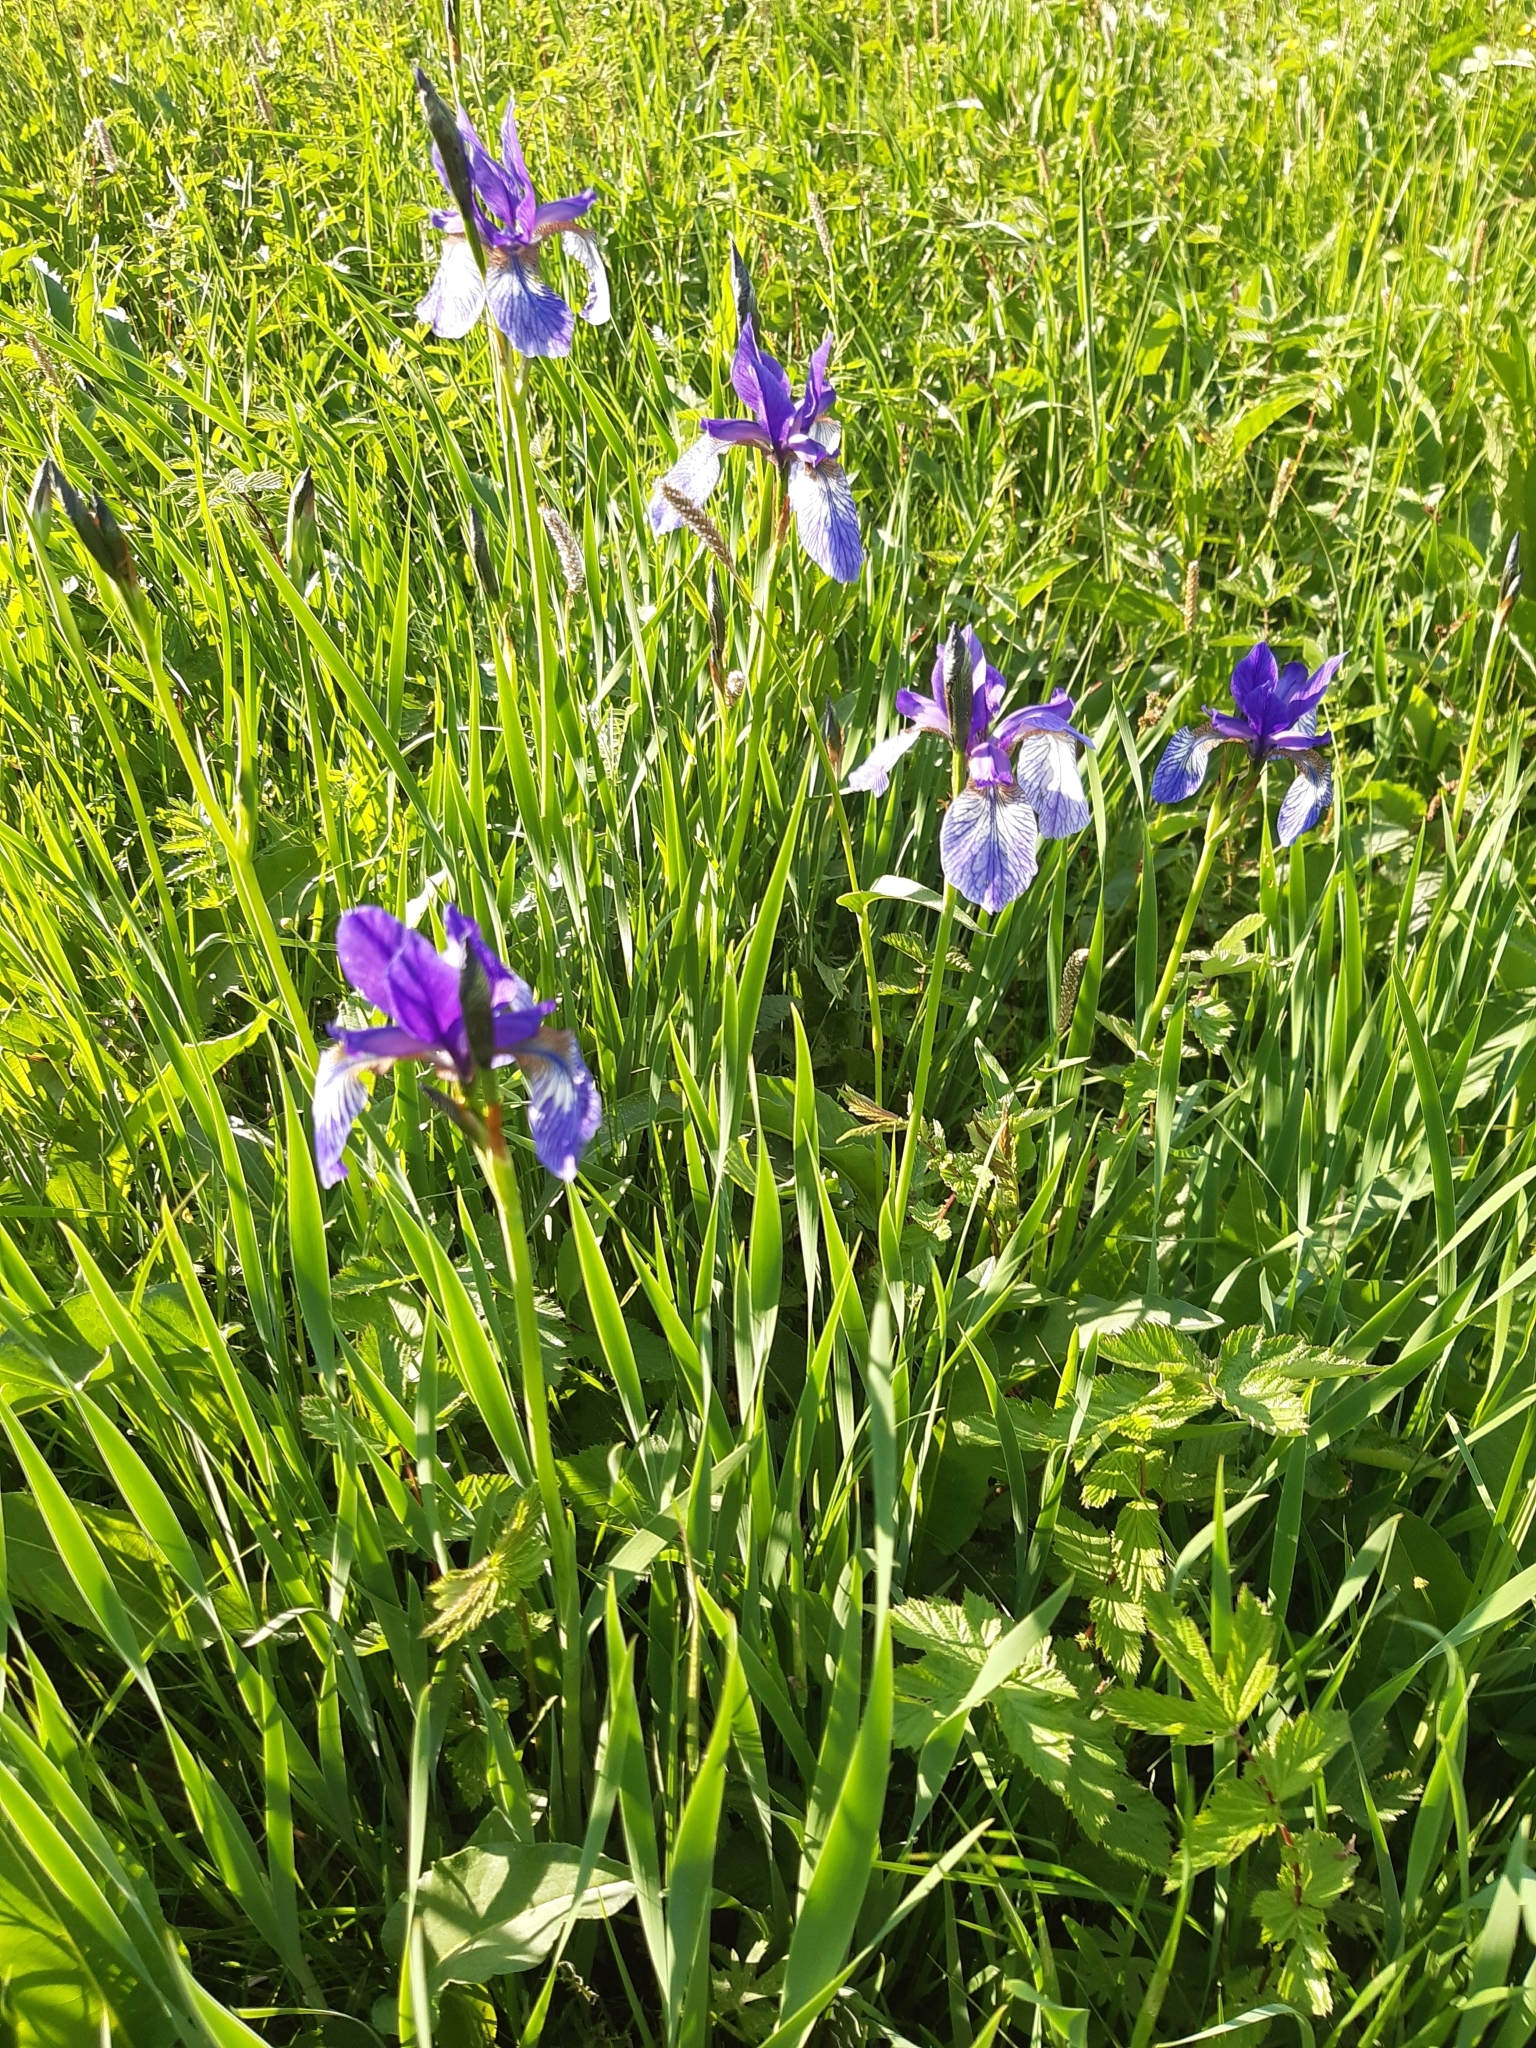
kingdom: Plantae
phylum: Tracheophyta
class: Liliopsida
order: Asparagales
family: Iridaceae
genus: Iris
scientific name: Iris sibirica
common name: Siberian iris
